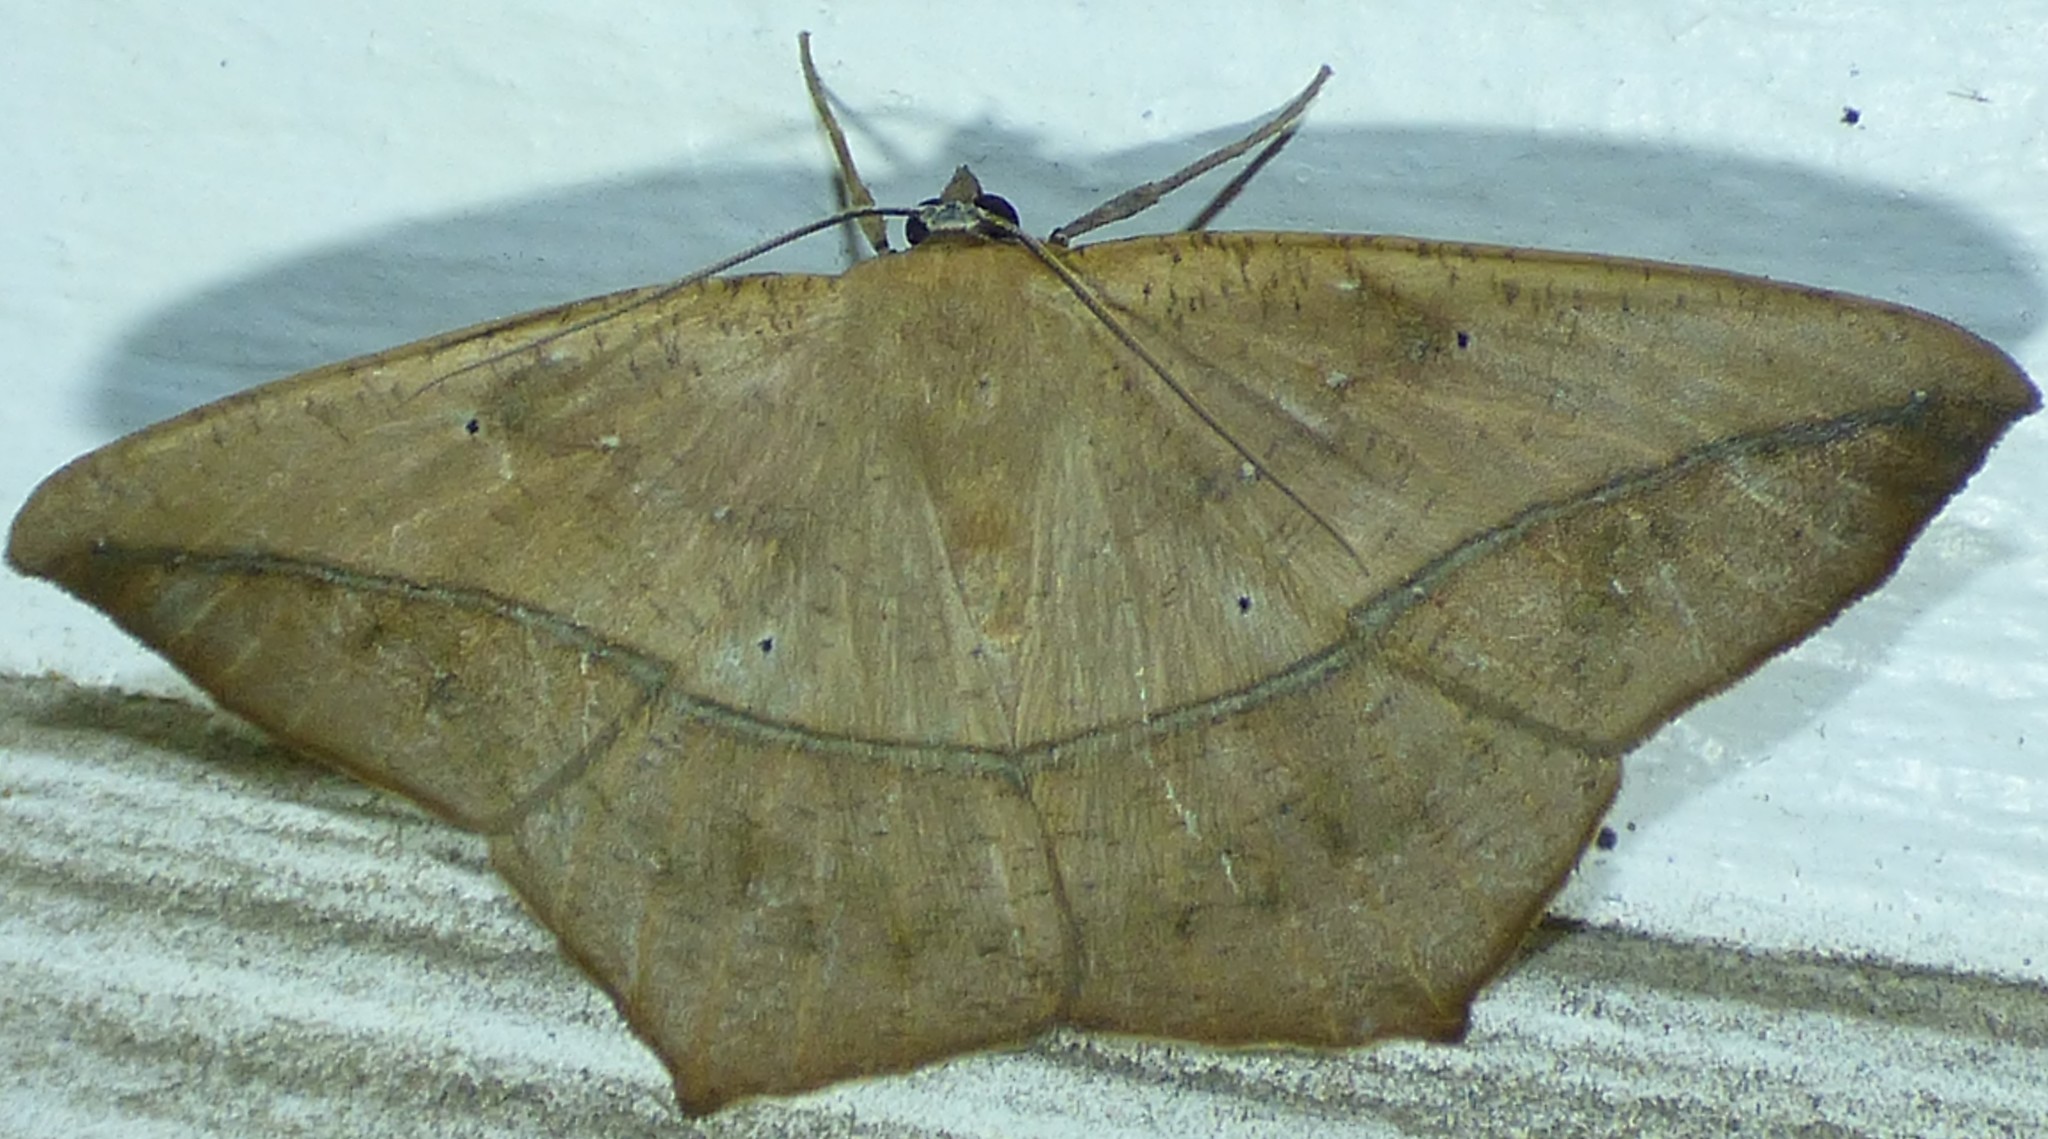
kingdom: Animalia
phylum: Arthropoda
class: Insecta
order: Lepidoptera
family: Geometridae
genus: Prochoerodes
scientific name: Prochoerodes lineola
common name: Large maple spanworm
